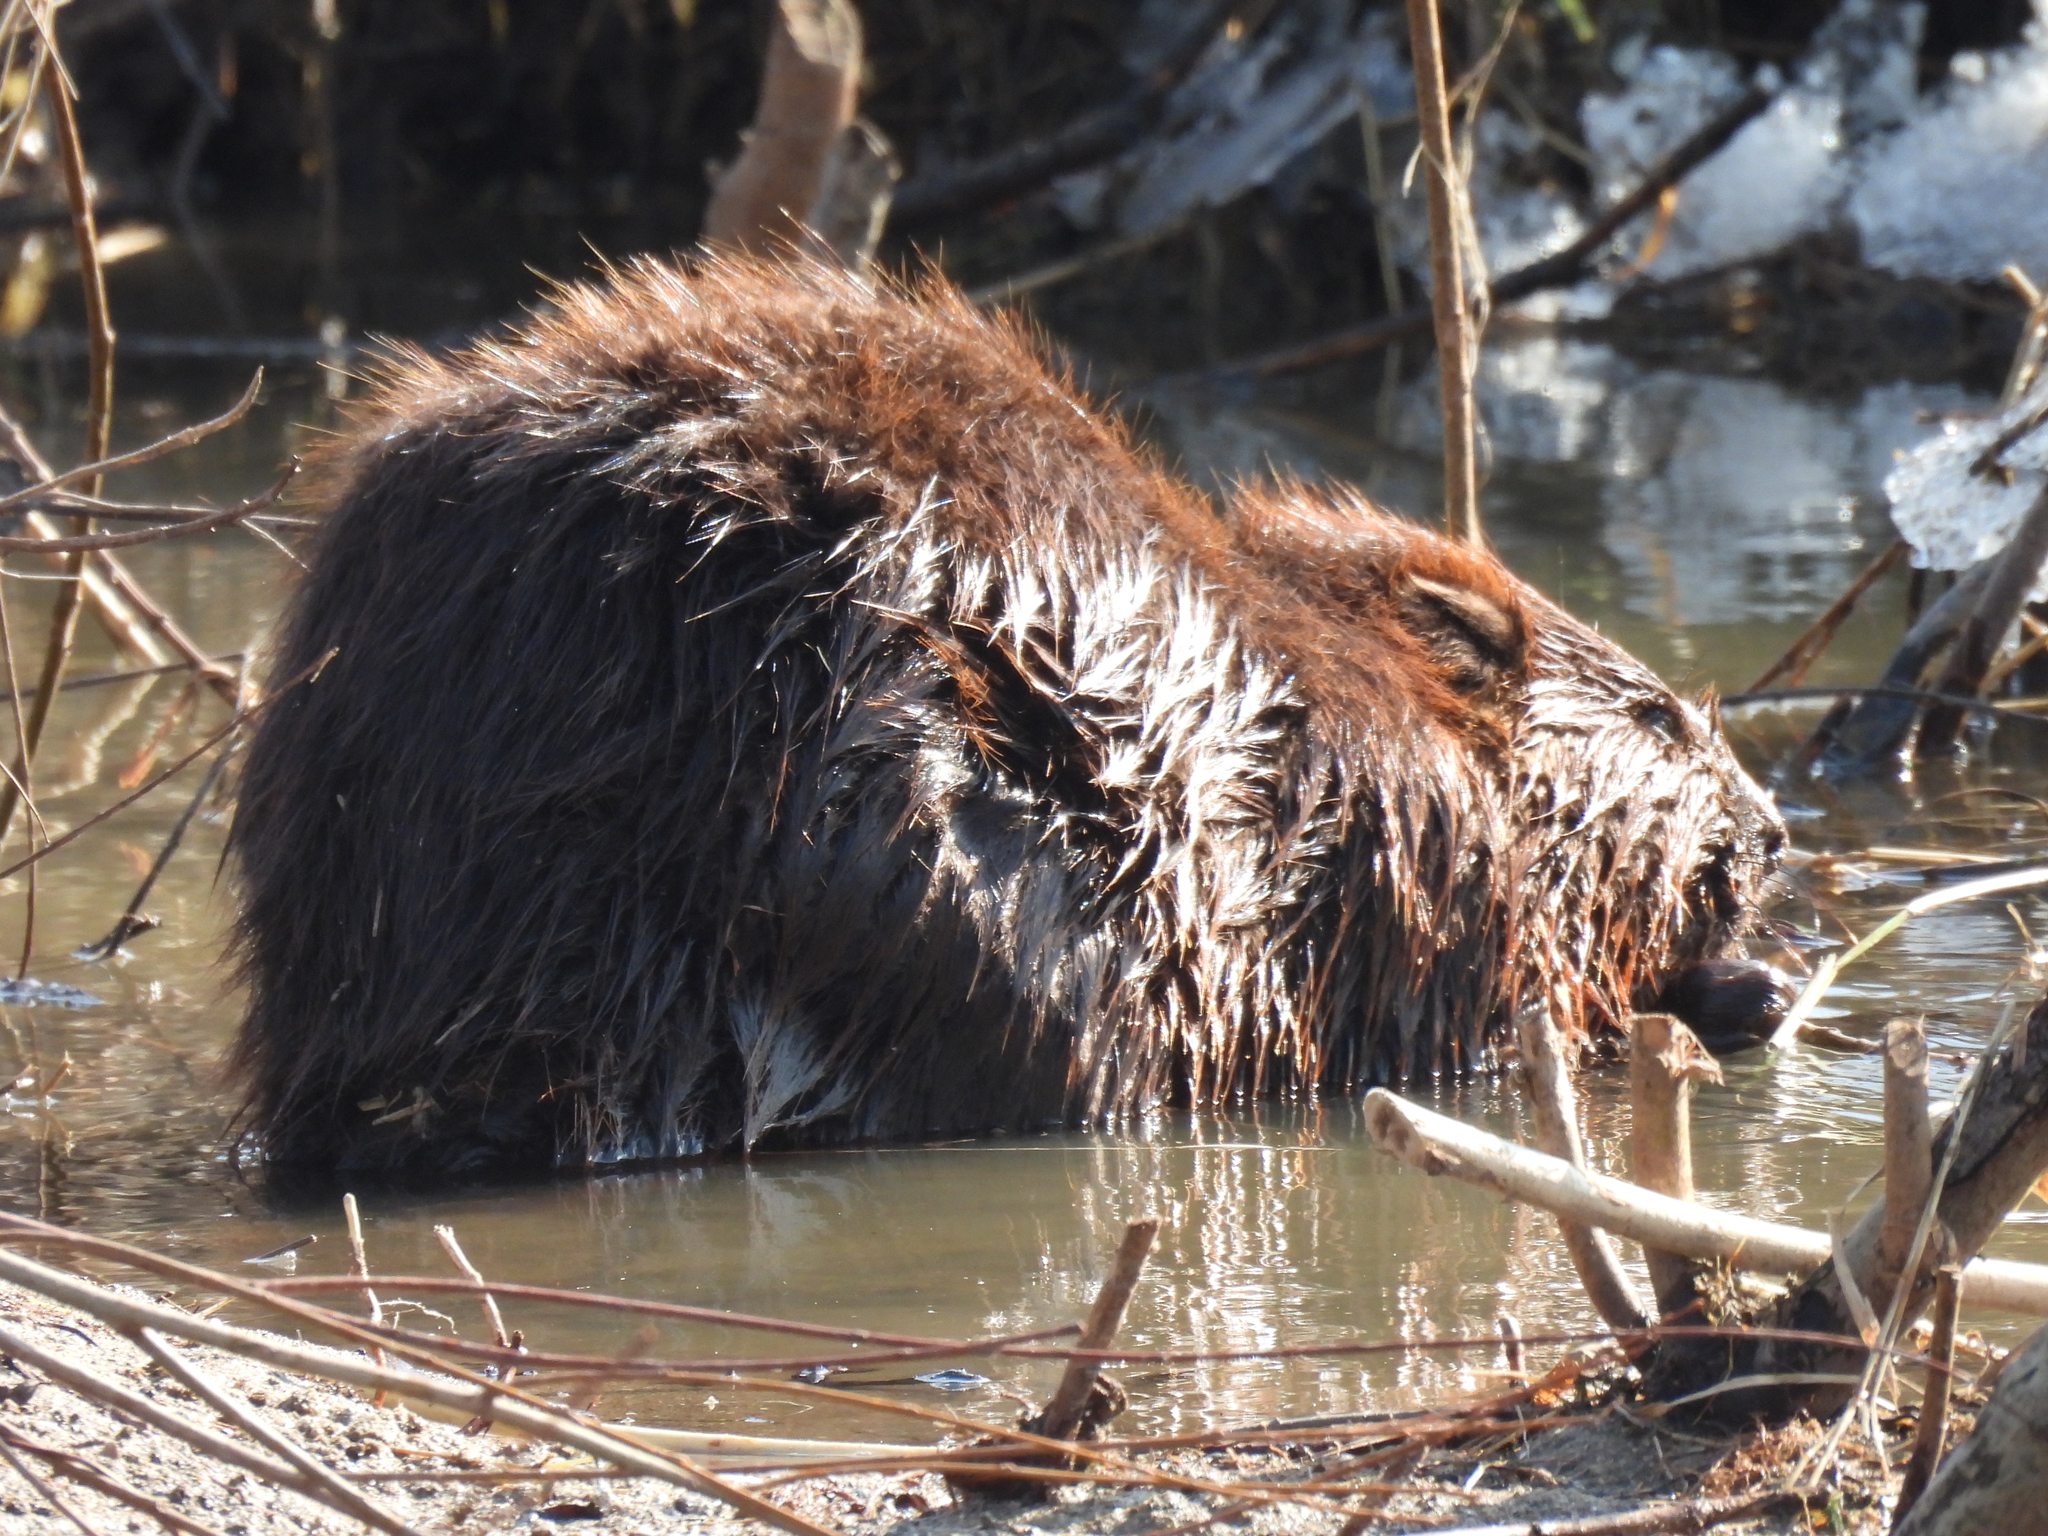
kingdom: Animalia
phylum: Chordata
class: Mammalia
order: Rodentia
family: Castoridae
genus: Castor
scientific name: Castor canadensis
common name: American beaver
